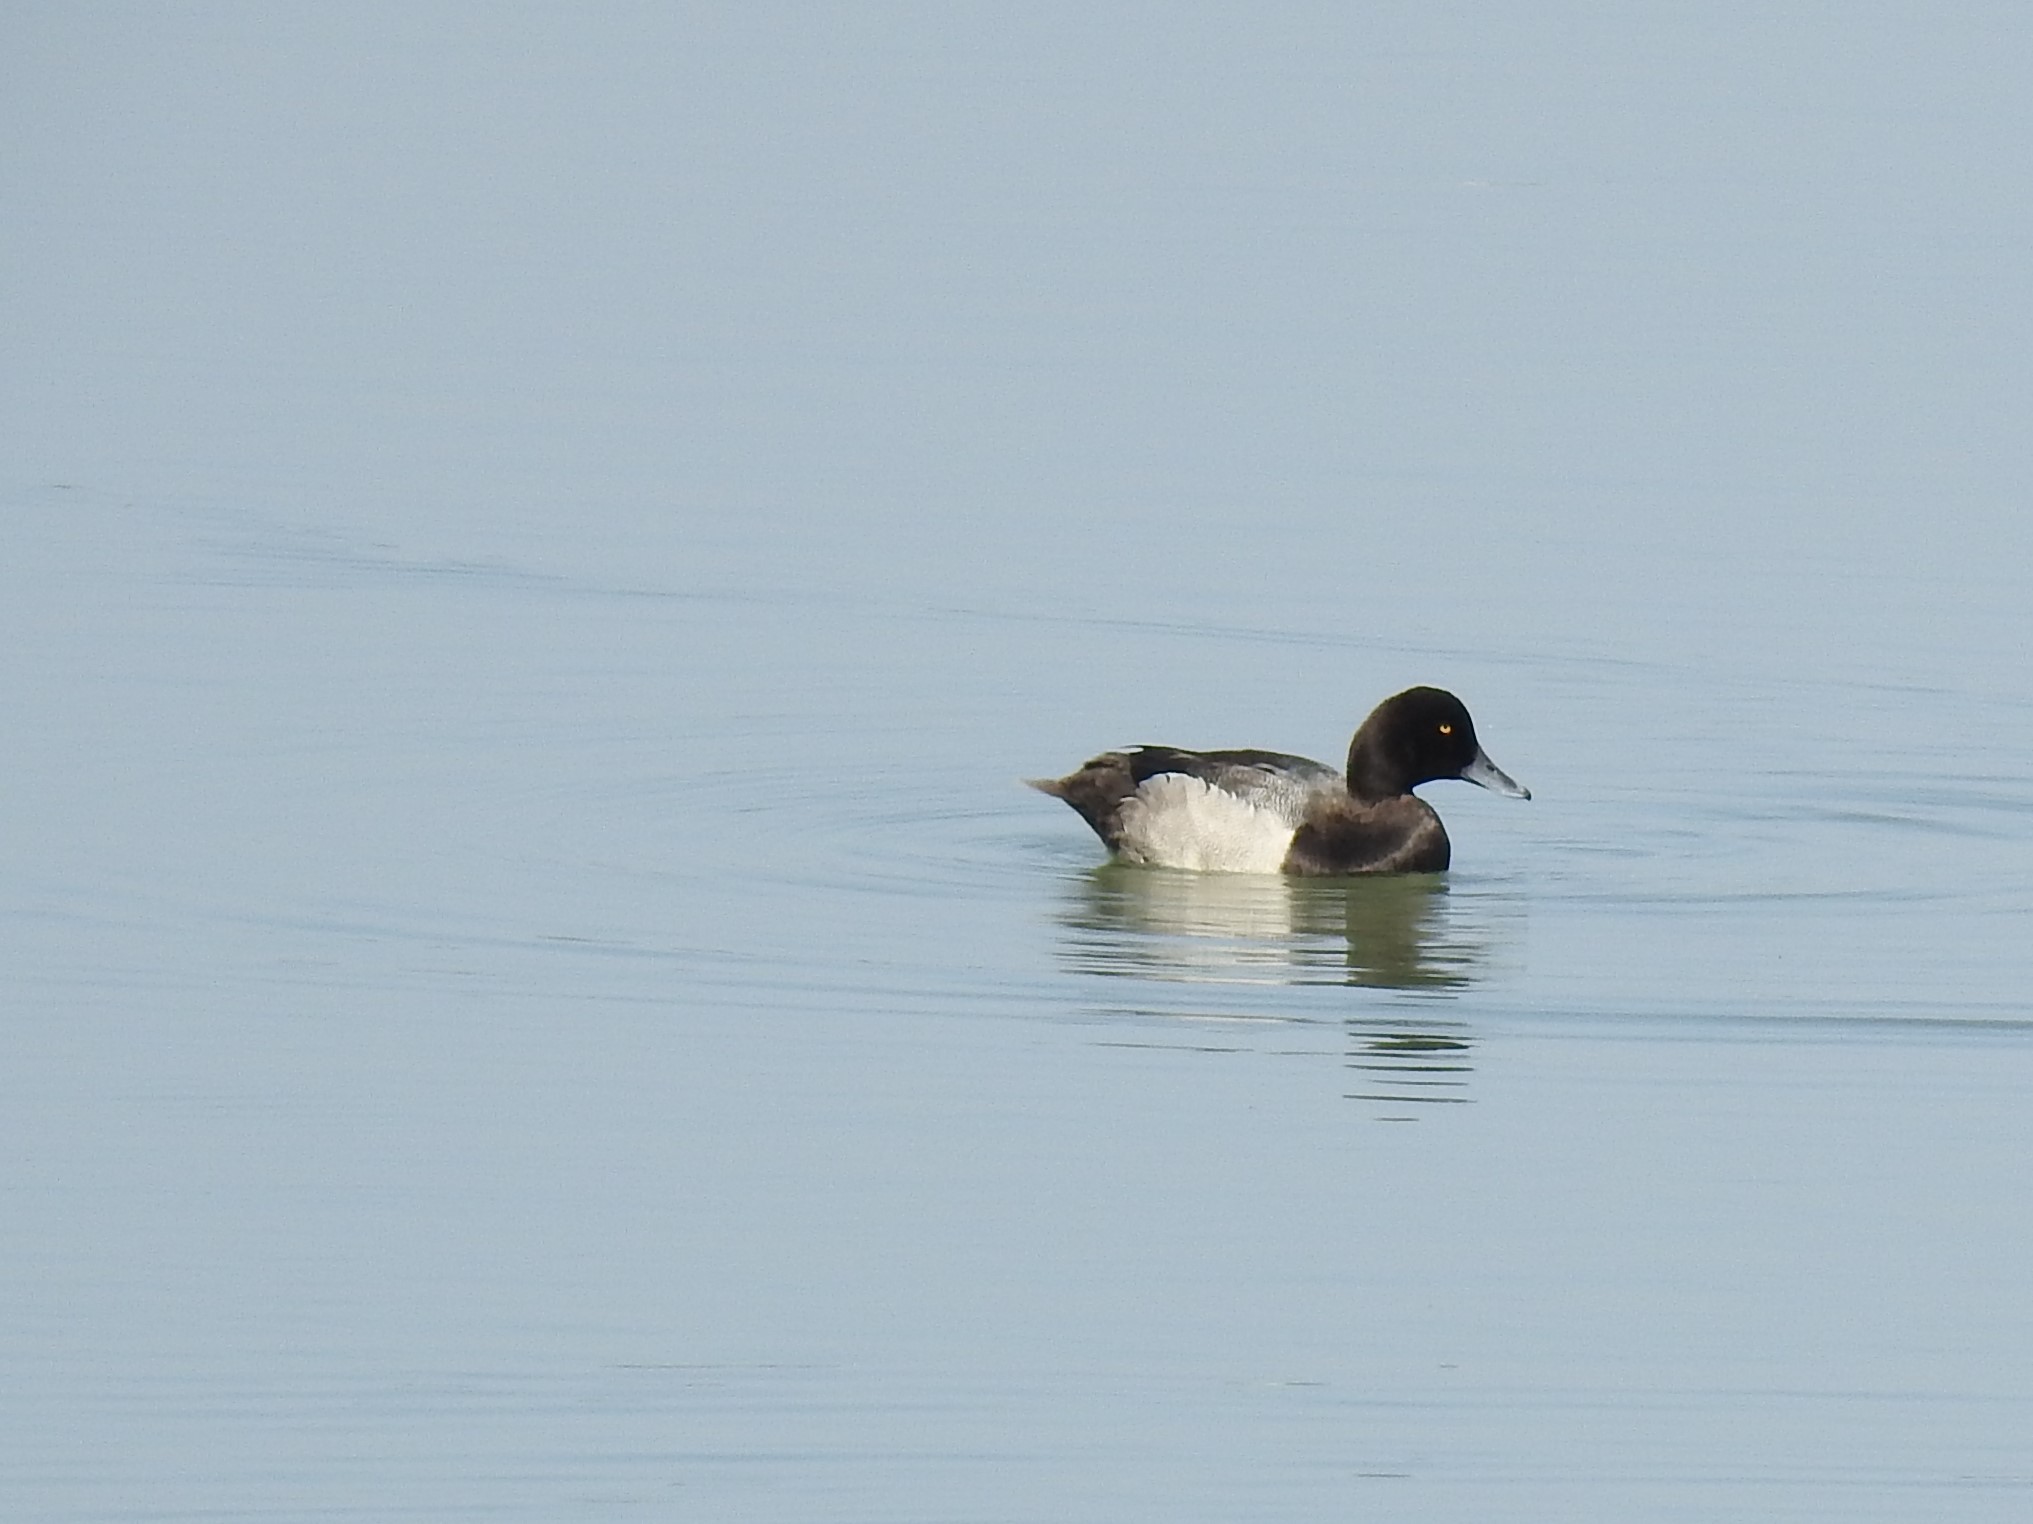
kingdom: Animalia
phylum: Chordata
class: Aves
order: Anseriformes
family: Anatidae
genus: Aythya
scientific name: Aythya marila
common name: Greater scaup
